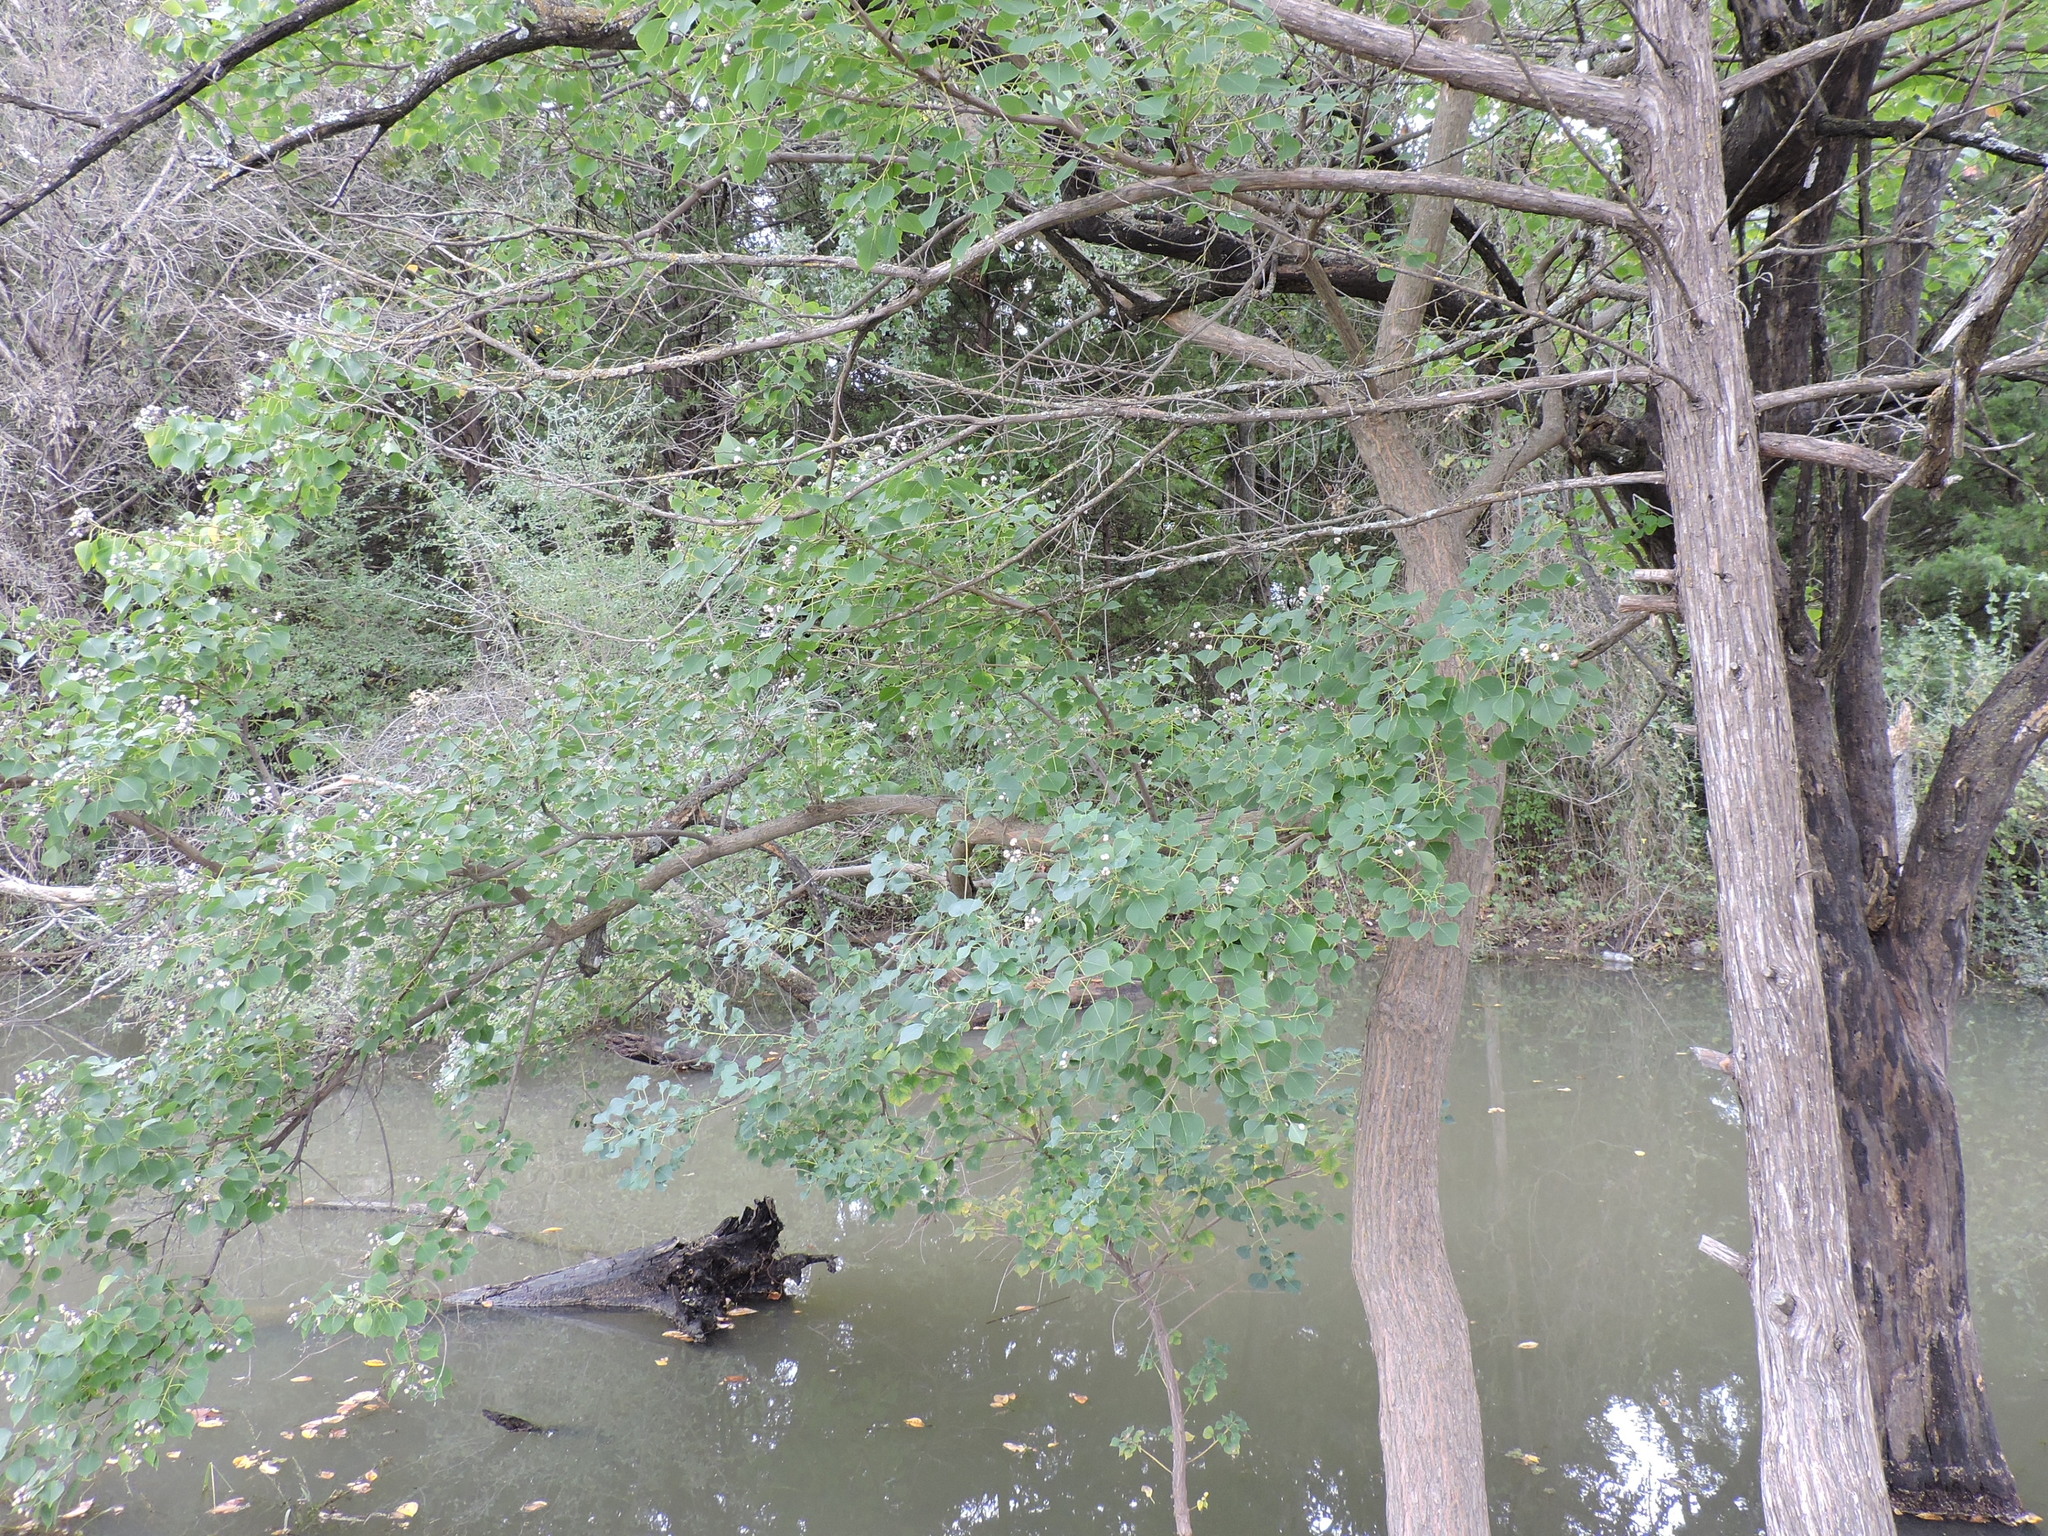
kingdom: Plantae
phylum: Tracheophyta
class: Magnoliopsida
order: Malpighiales
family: Euphorbiaceae
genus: Triadica
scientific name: Triadica sebifera
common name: Chinese tallow
